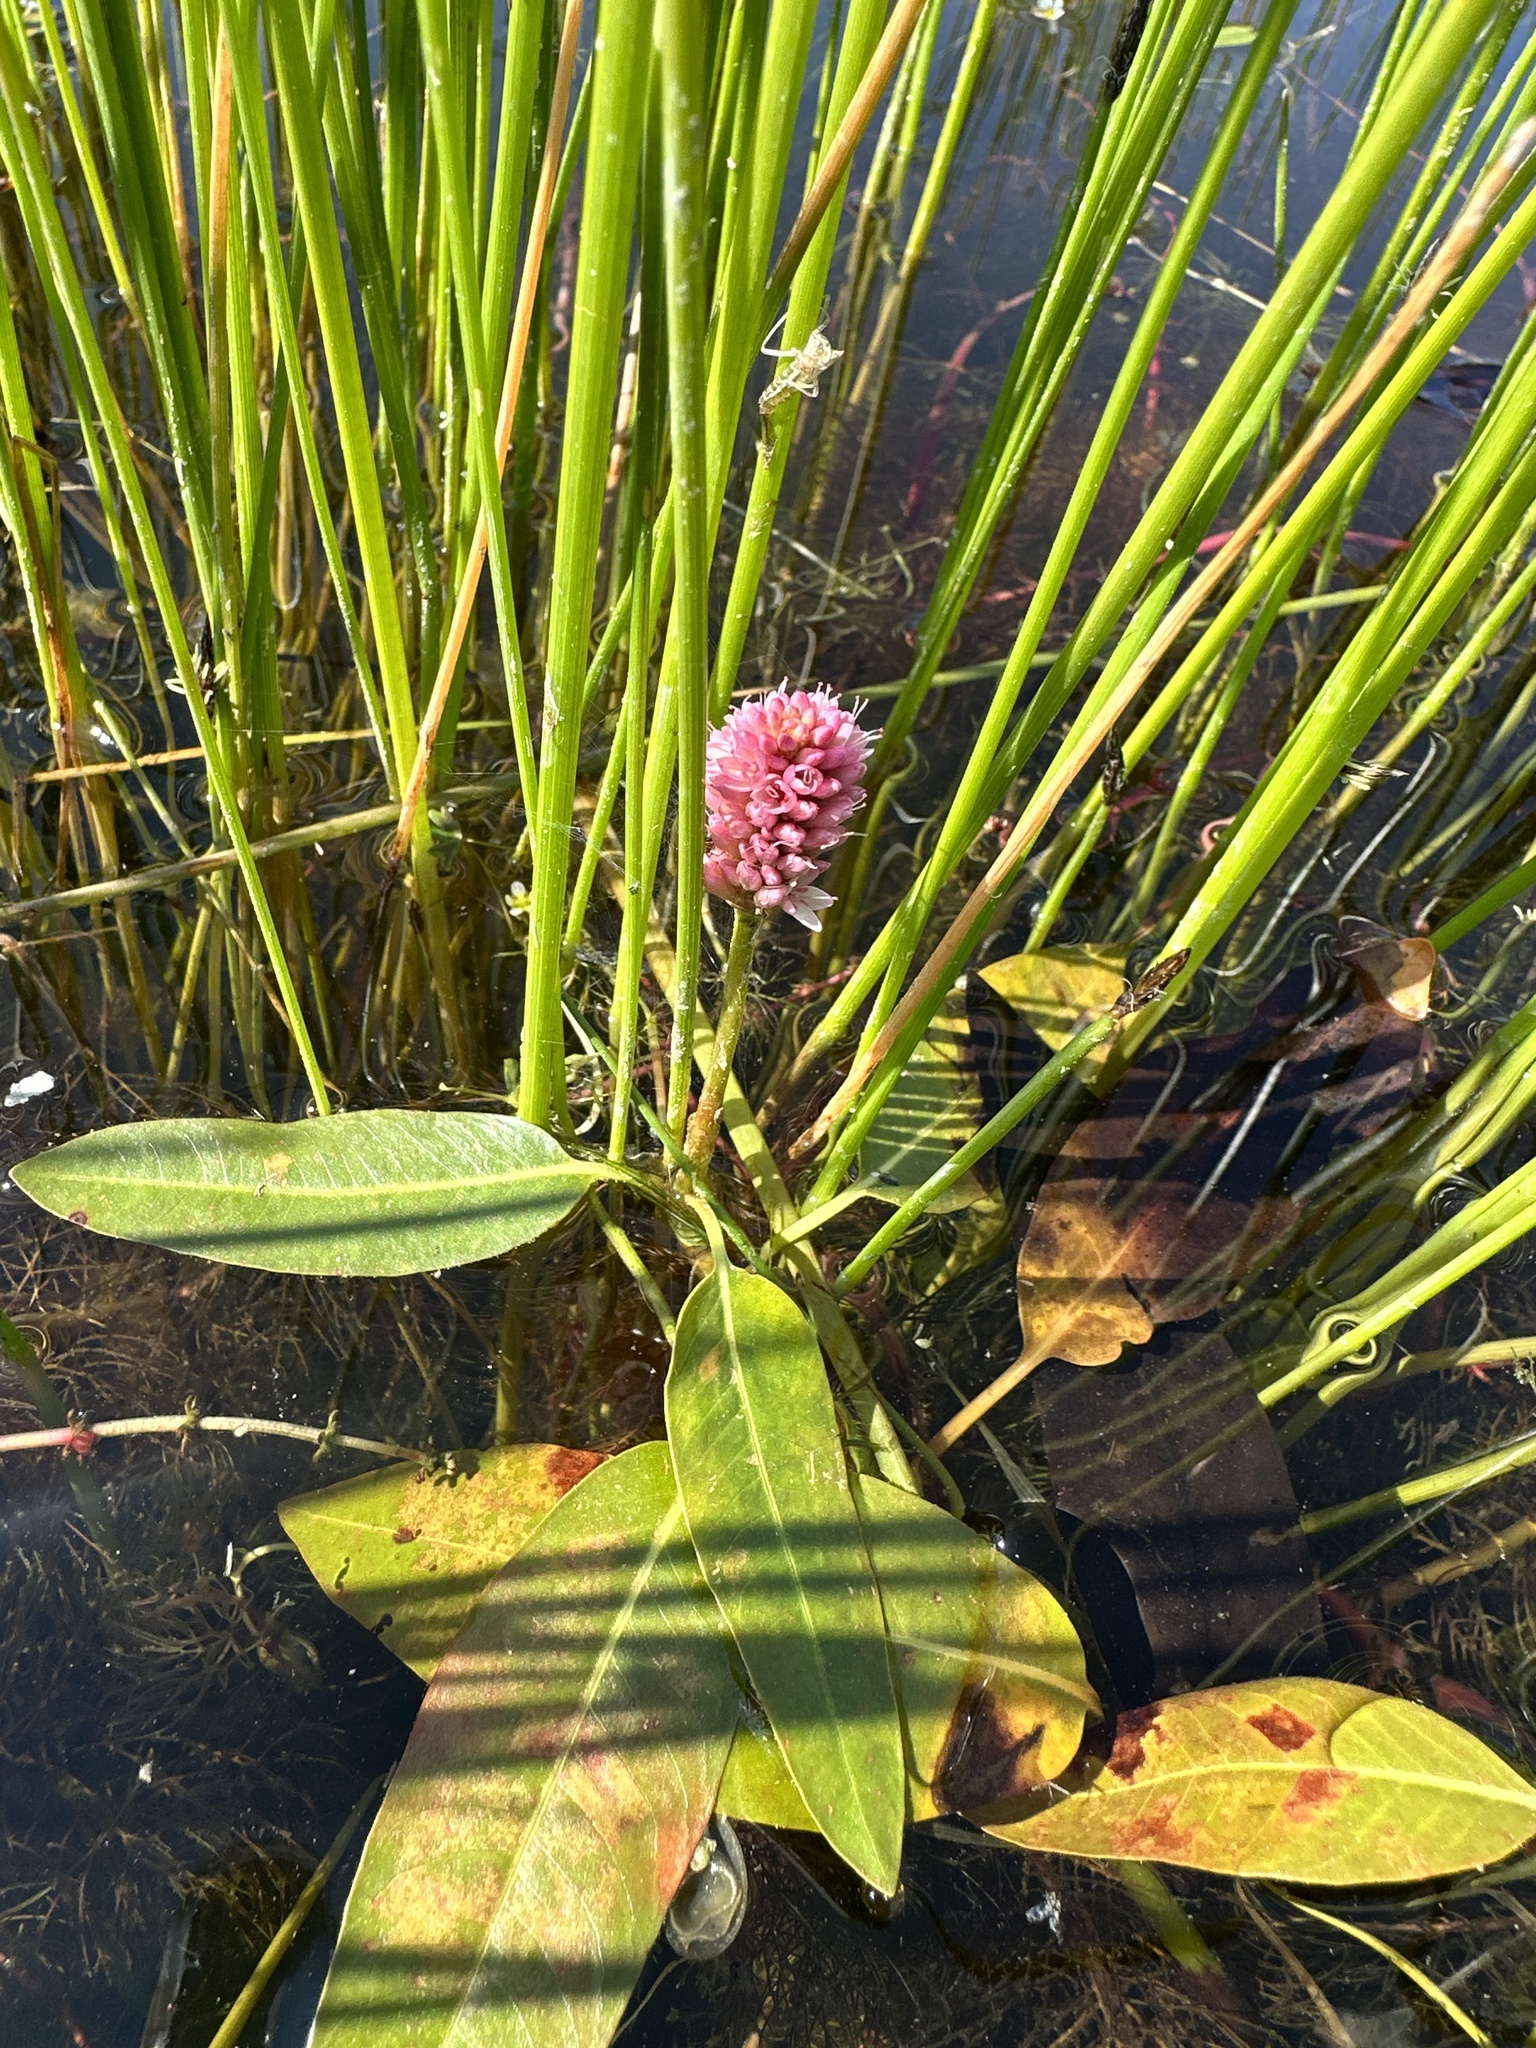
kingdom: Plantae
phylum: Tracheophyta
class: Magnoliopsida
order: Caryophyllales
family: Polygonaceae
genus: Persicaria
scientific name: Persicaria amphibia
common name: Amphibious bistort
